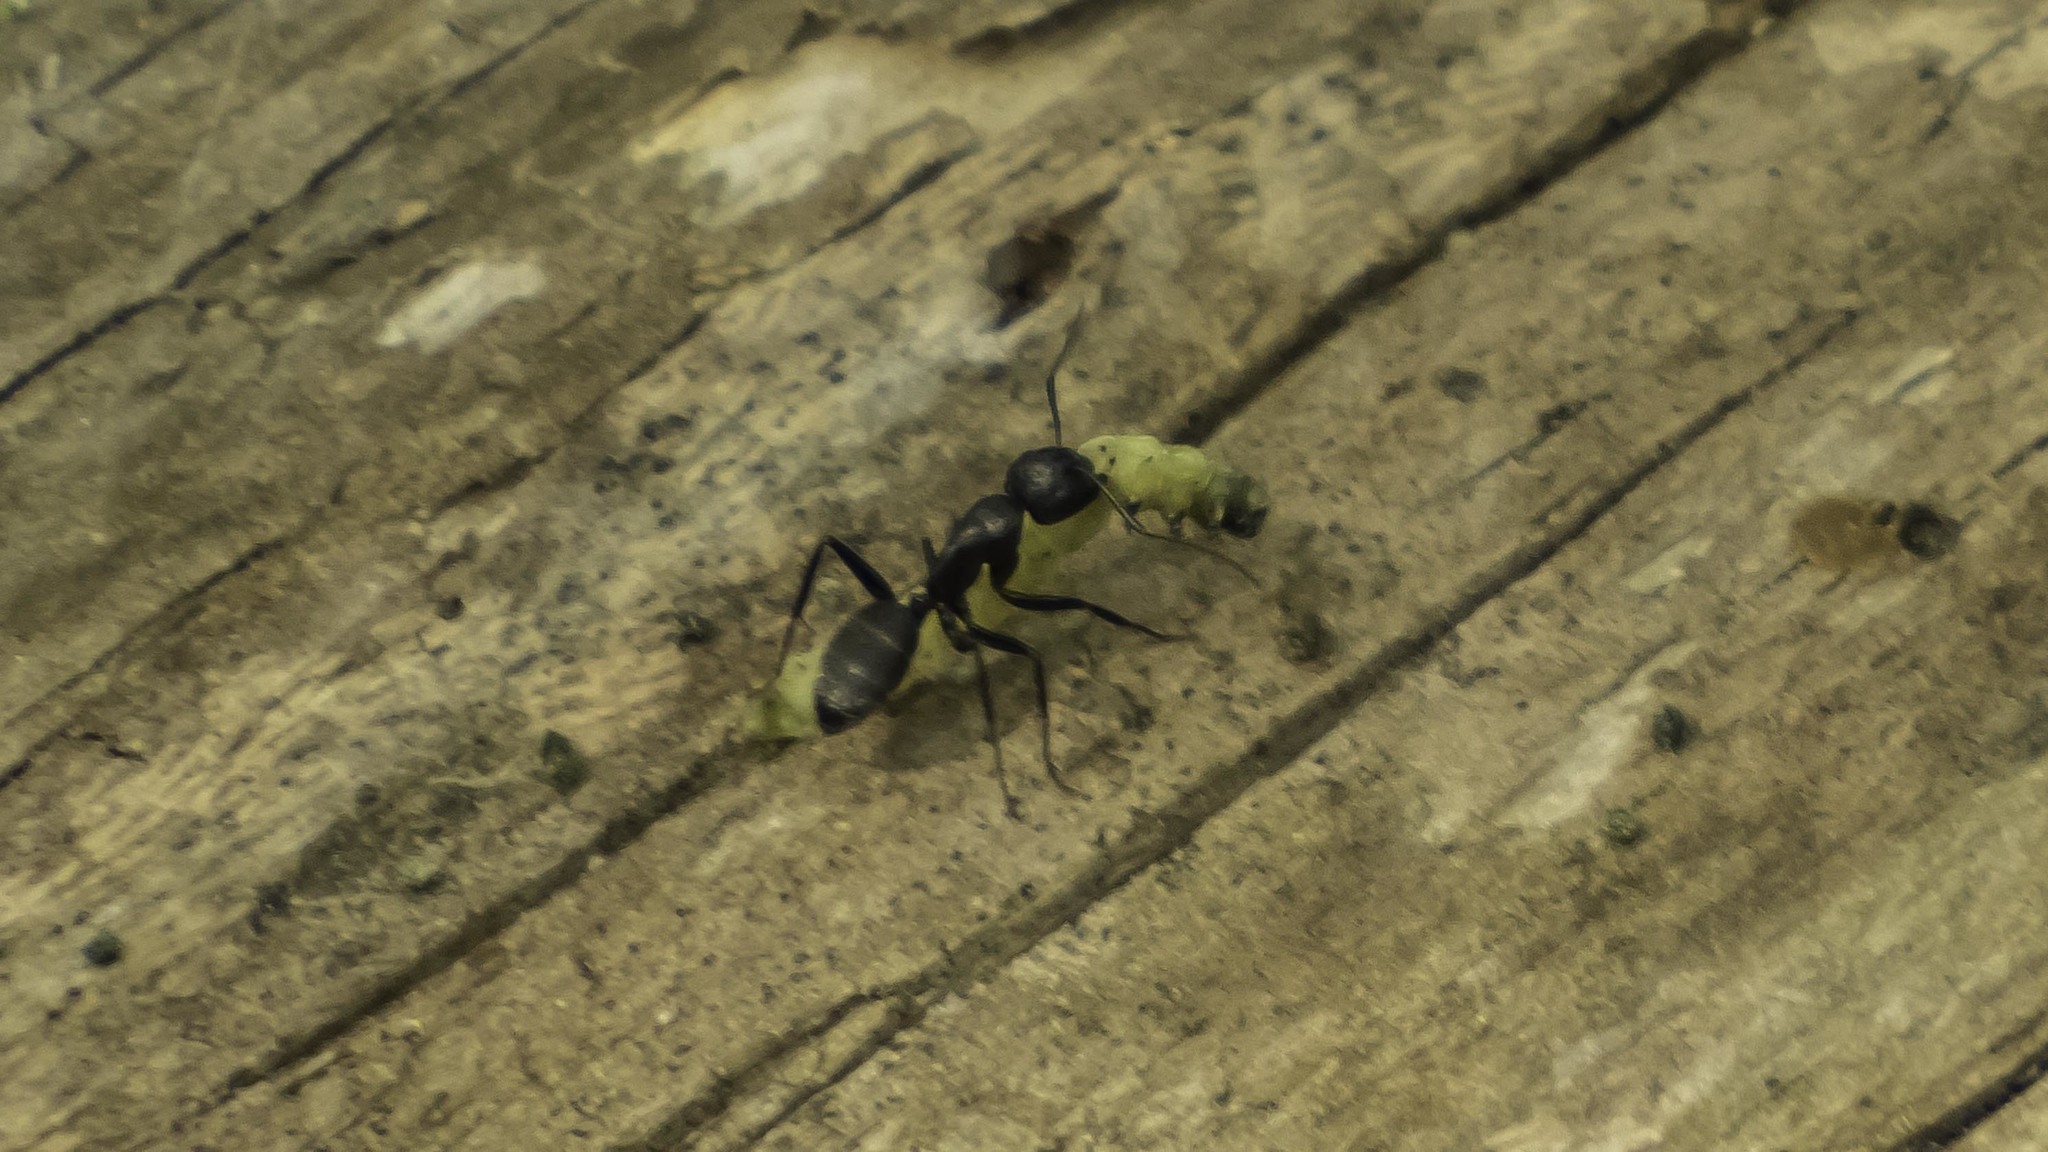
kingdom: Animalia
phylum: Arthropoda
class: Insecta
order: Hymenoptera
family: Formicidae
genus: Camponotus
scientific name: Camponotus pennsylvanicus
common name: Black carpenter ant
